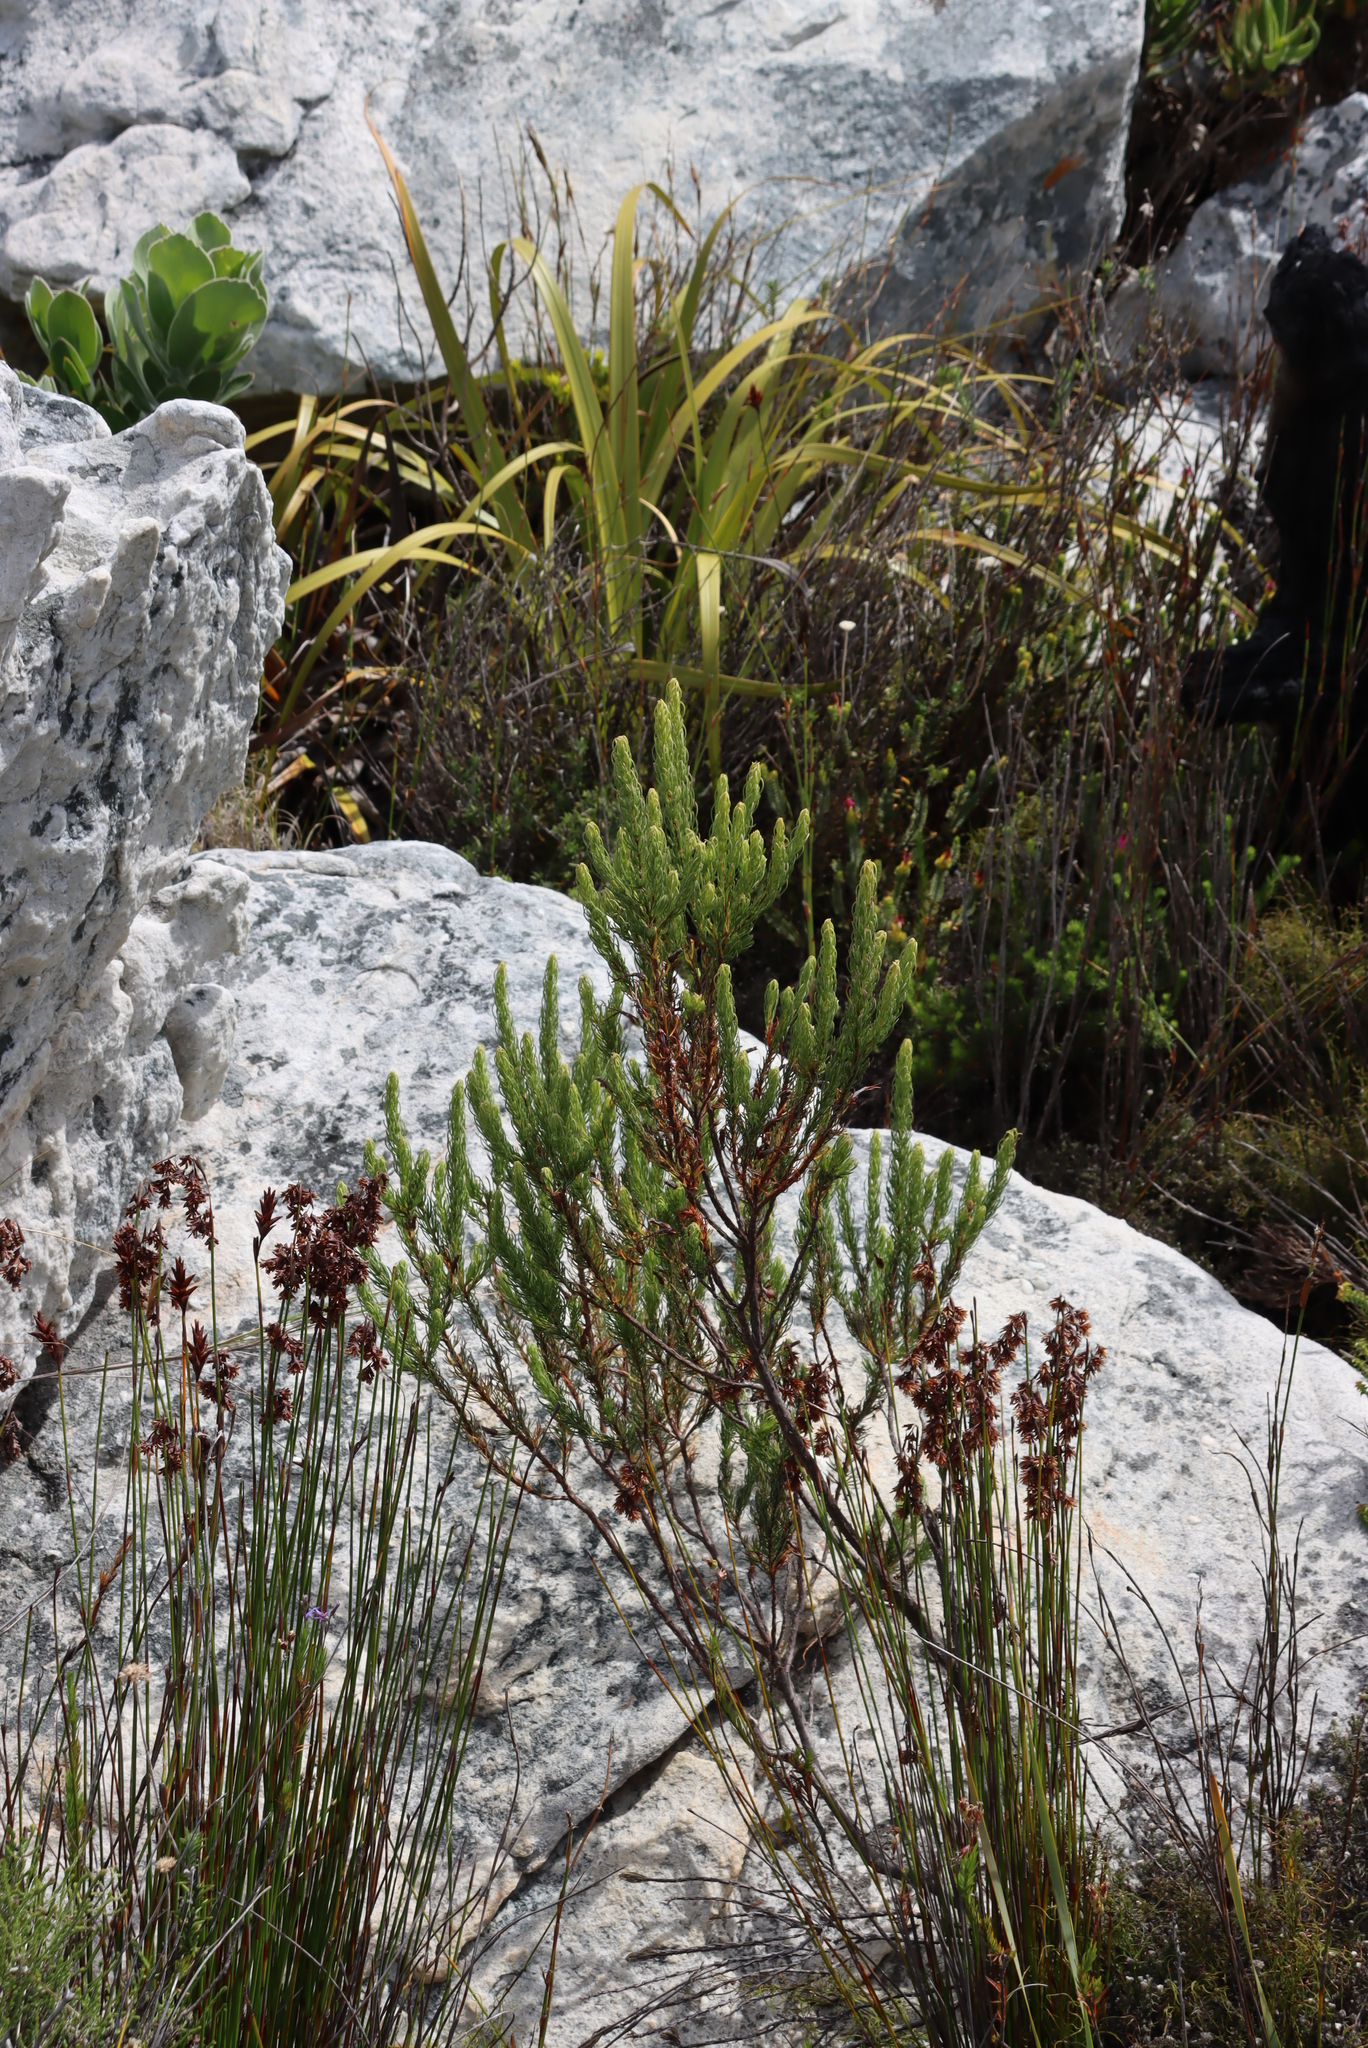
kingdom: Plantae
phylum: Tracheophyta
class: Magnoliopsida
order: Ericales
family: Ericaceae
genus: Erica
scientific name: Erica mammosa
